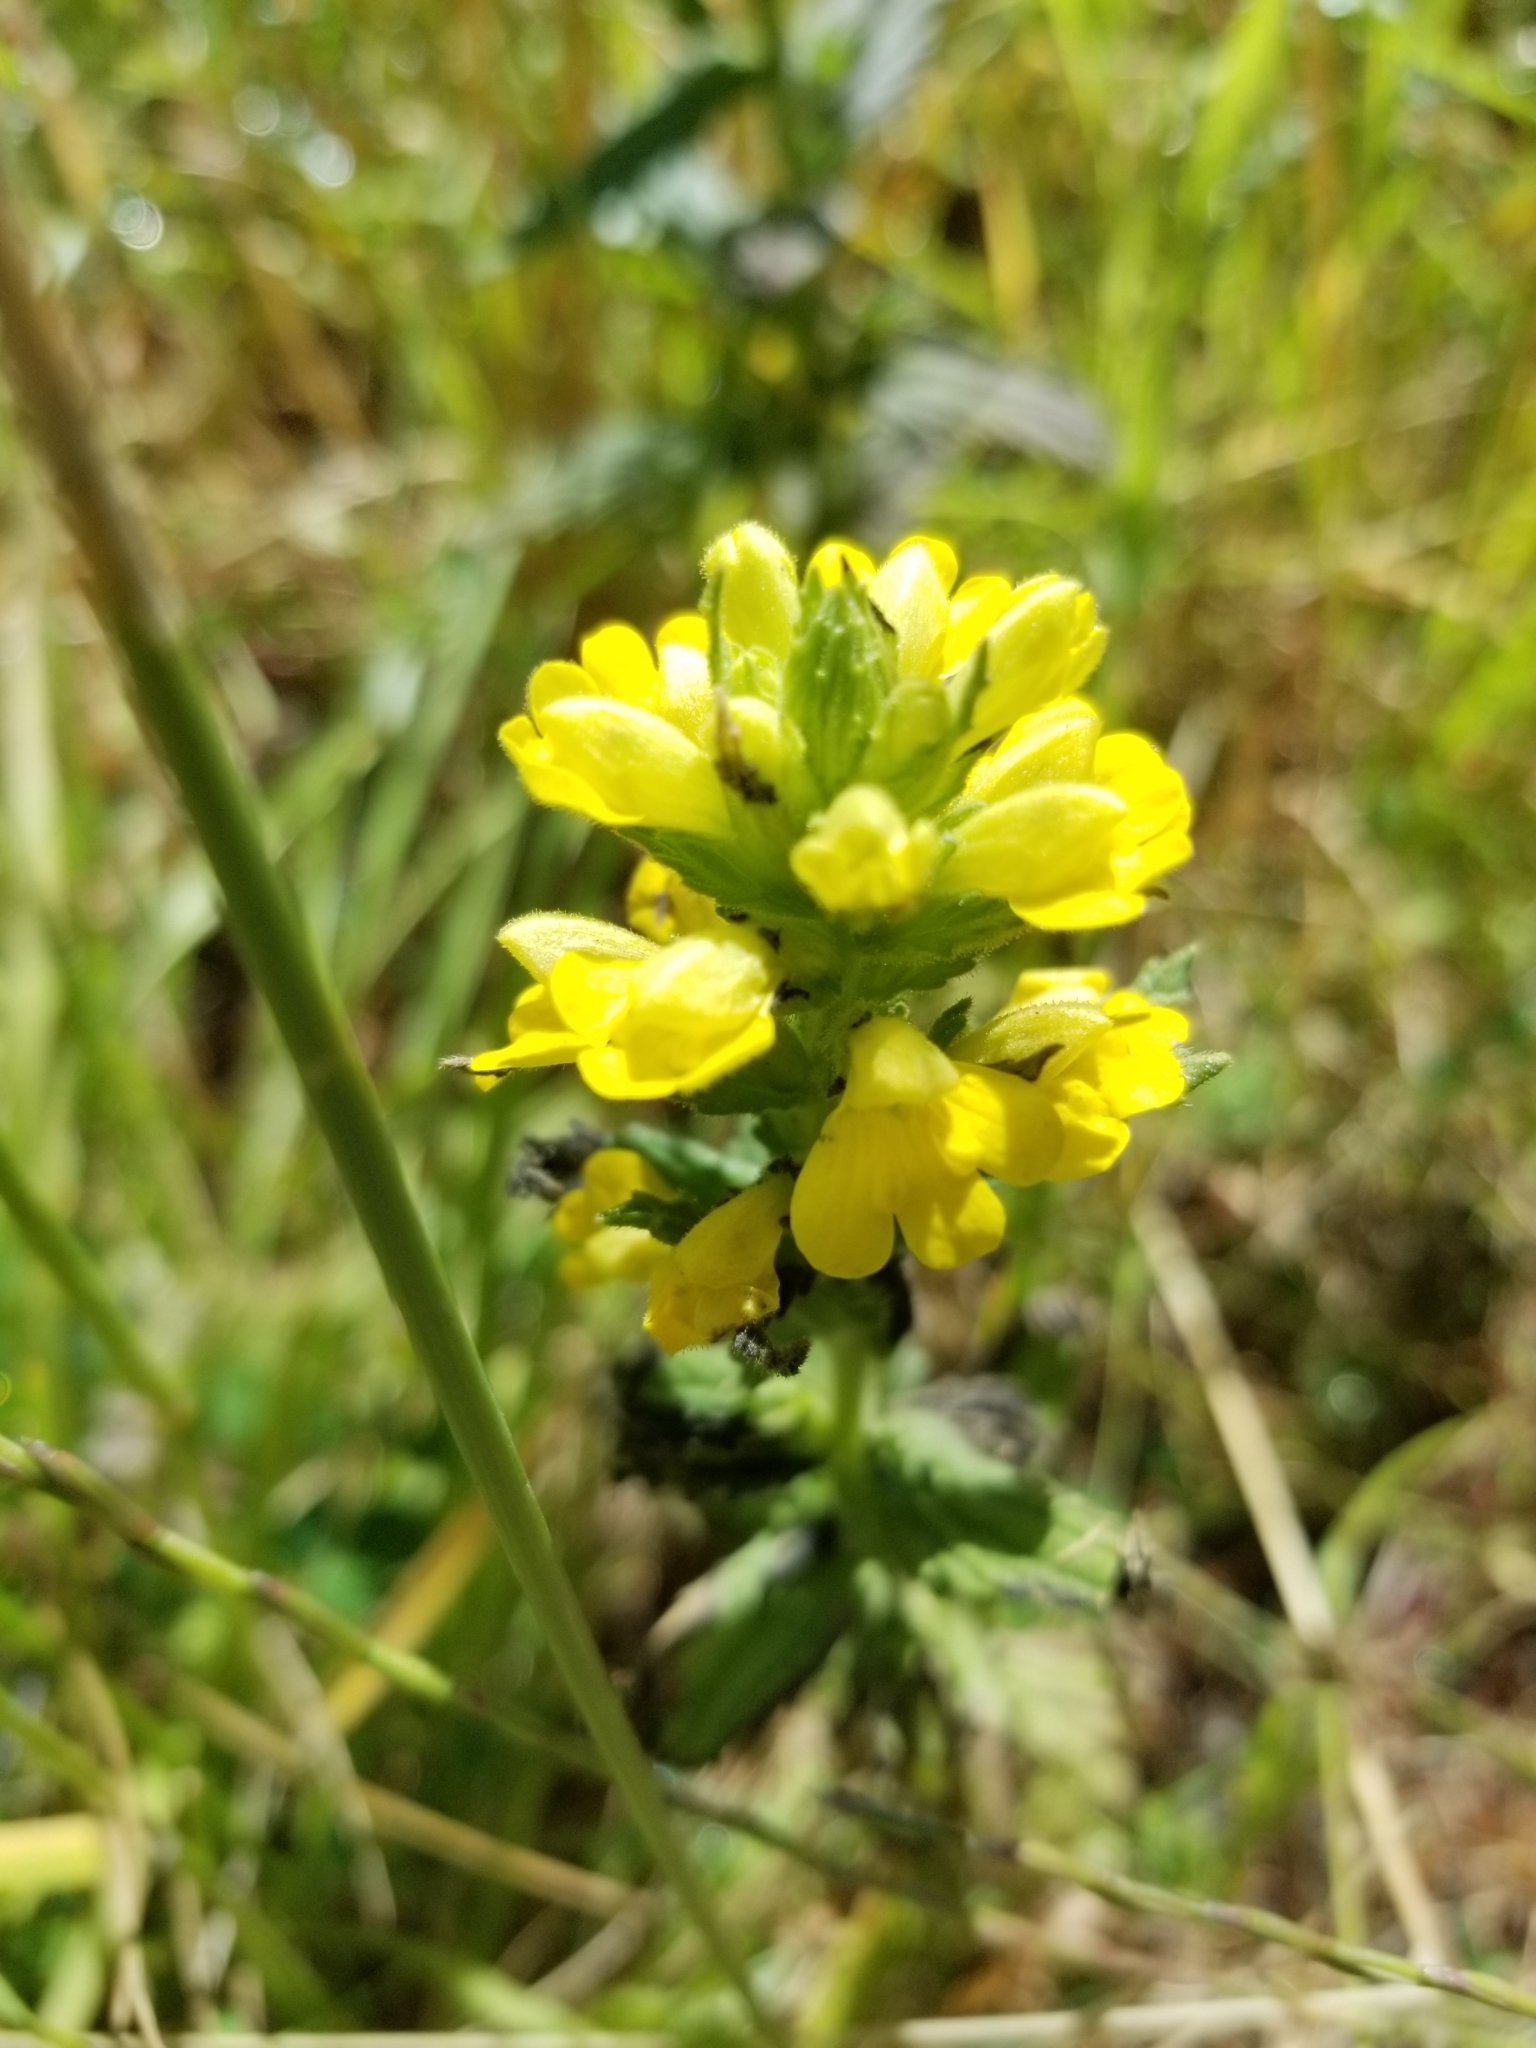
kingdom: Plantae
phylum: Tracheophyta
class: Magnoliopsida
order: Lamiales
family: Orobanchaceae
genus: Bellardia
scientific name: Bellardia viscosa
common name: Sticky parentucellia
